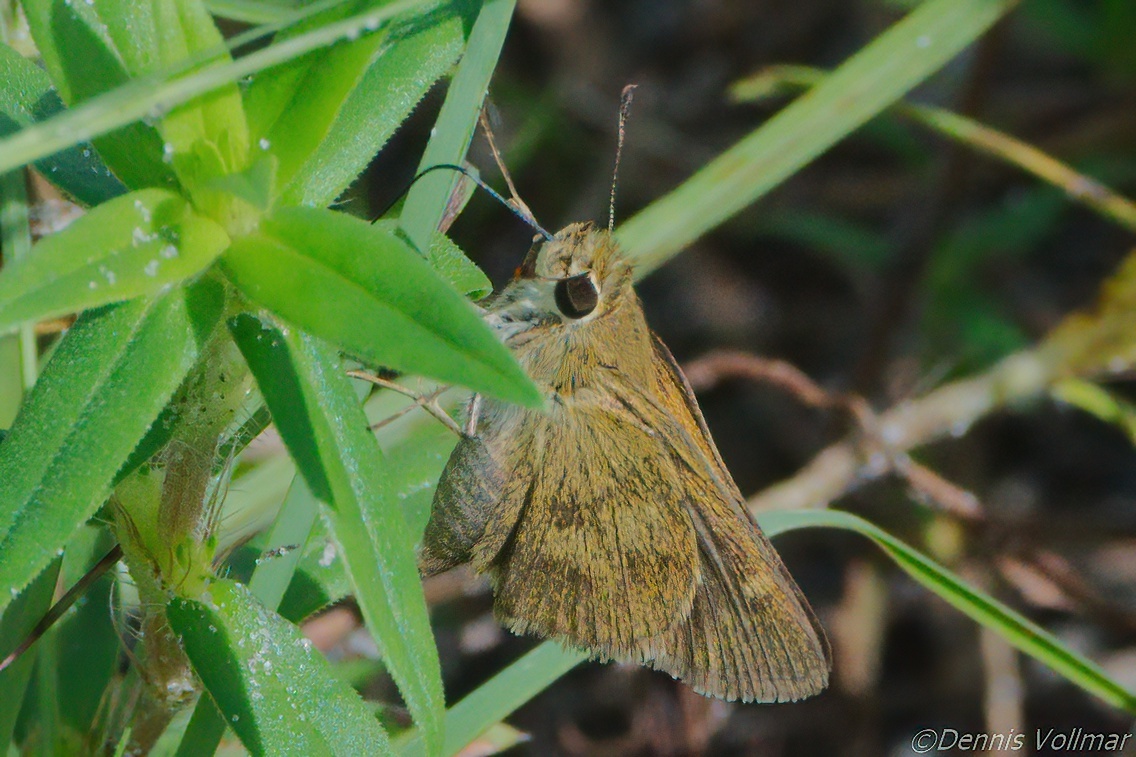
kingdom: Animalia
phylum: Arthropoda
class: Insecta
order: Lepidoptera
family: Hesperiidae
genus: Polites
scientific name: Polites vibex
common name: Whirlabout
